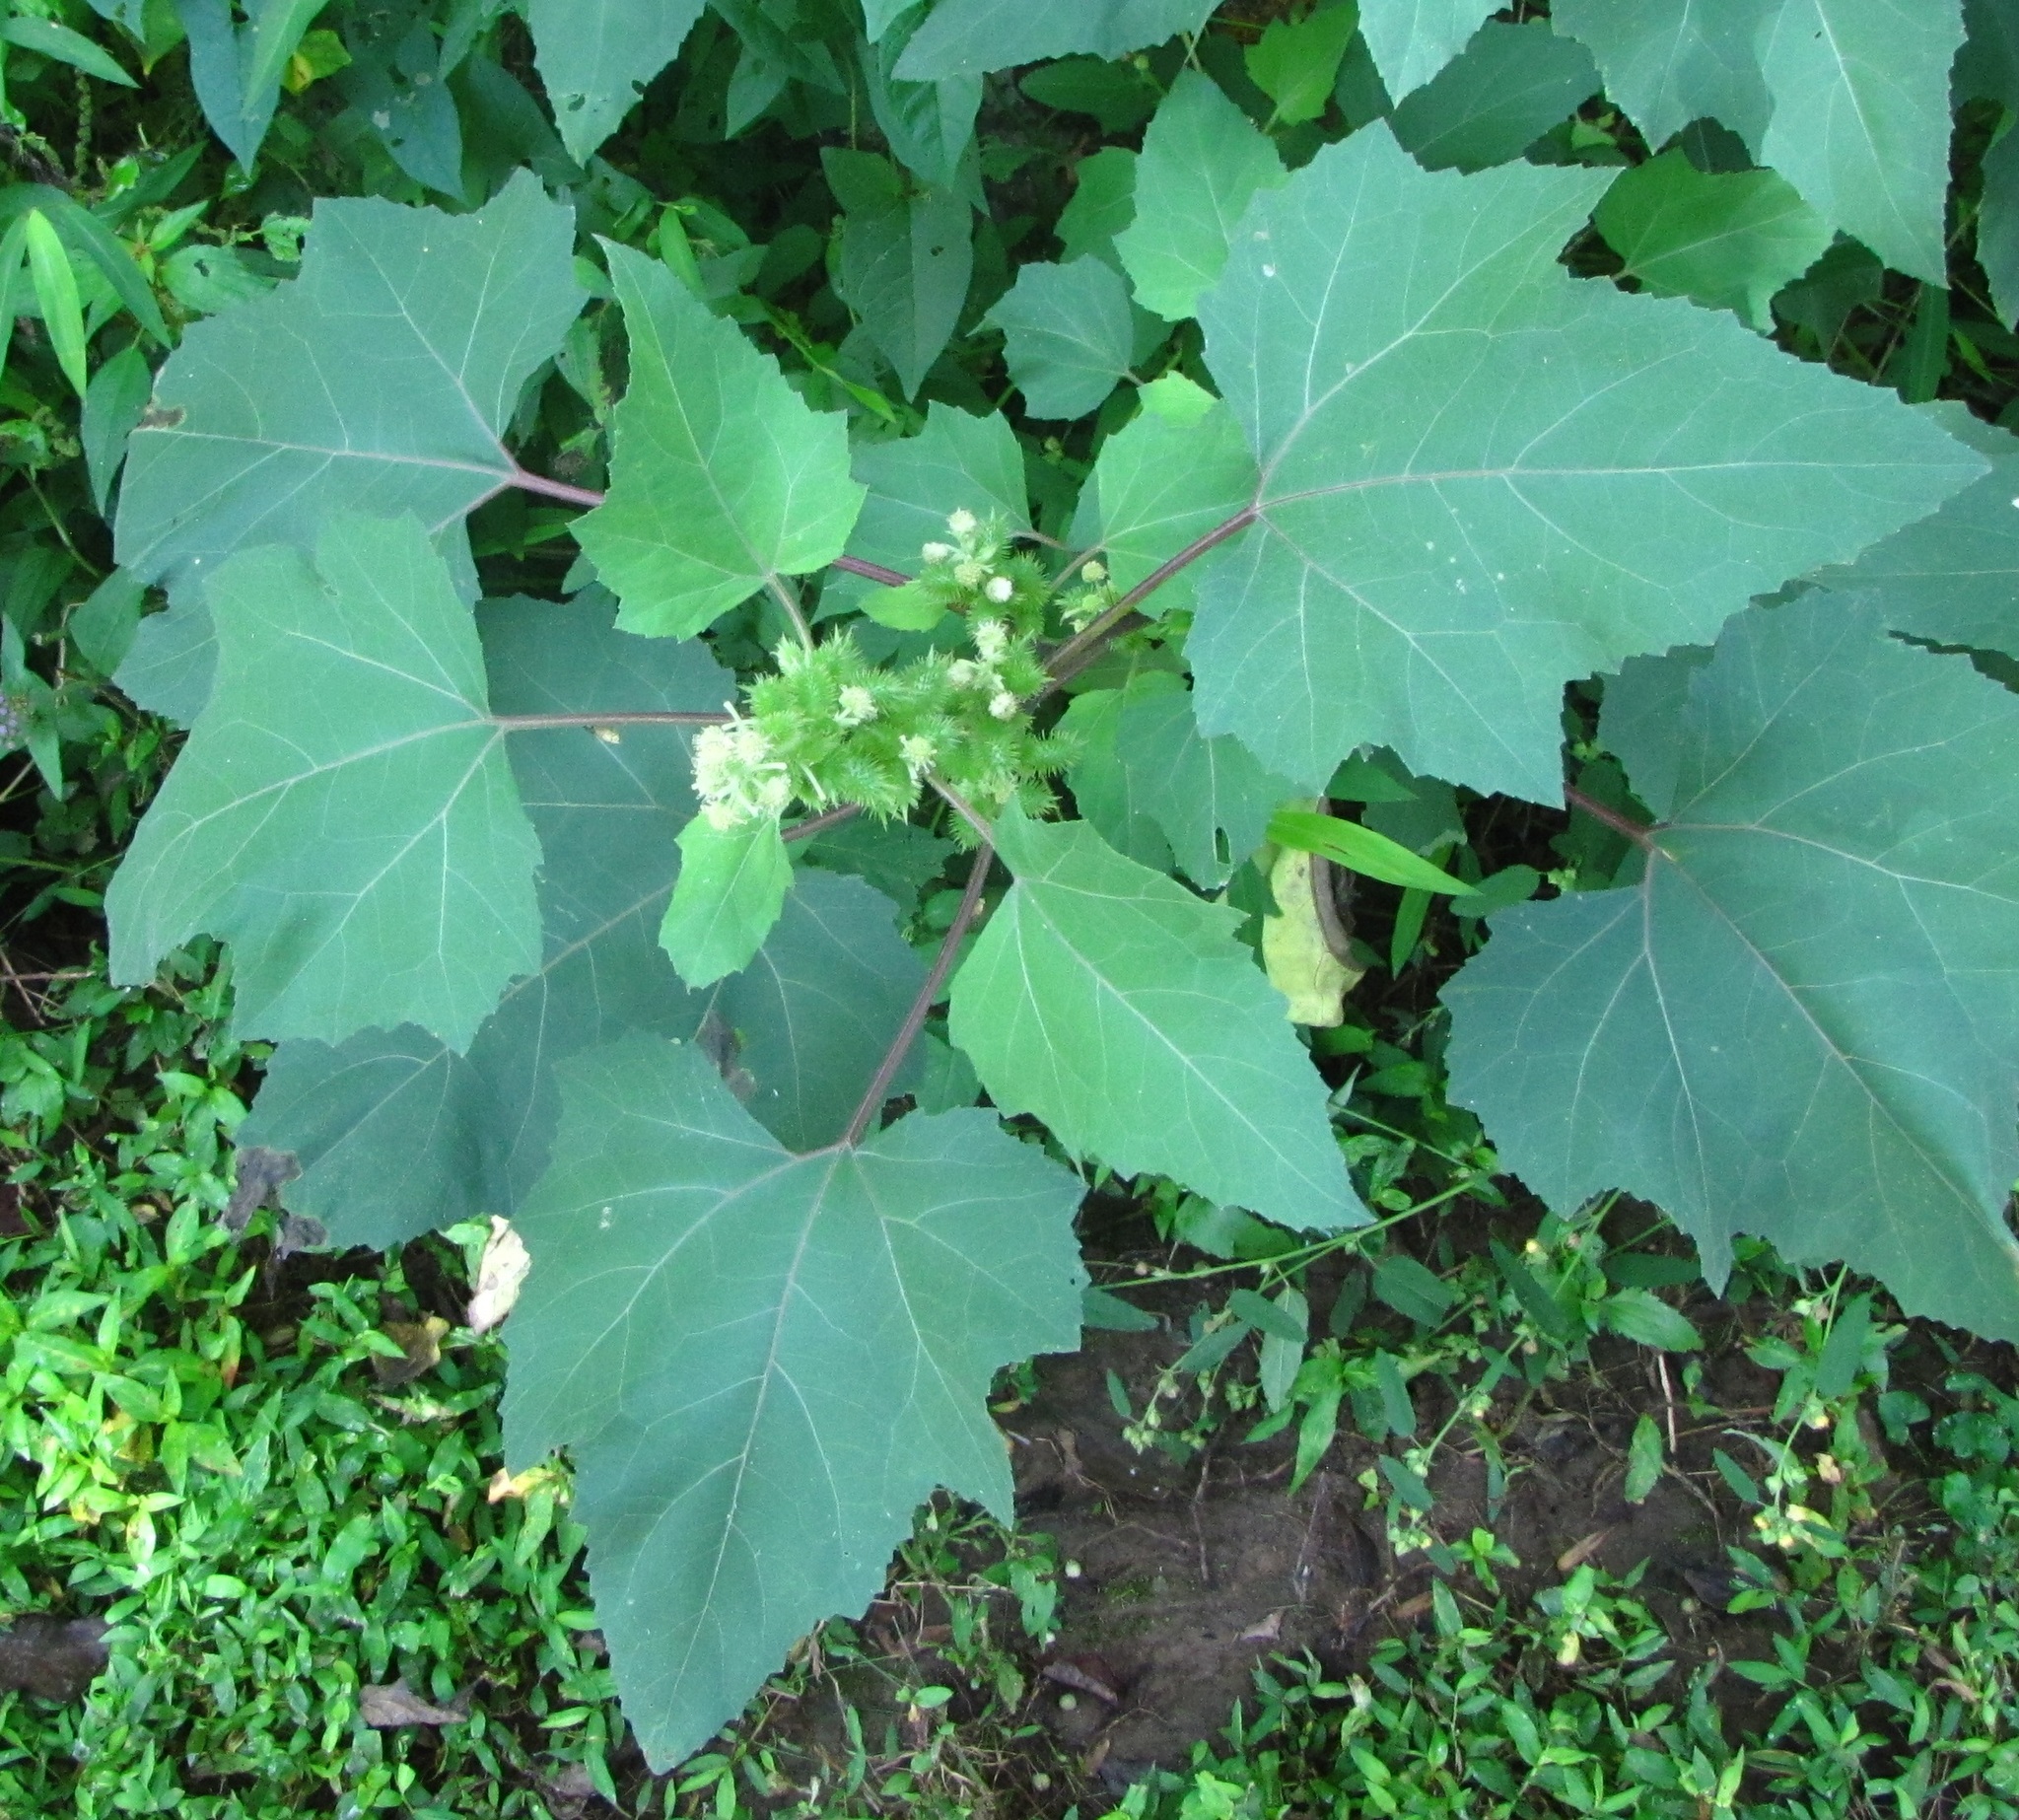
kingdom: Plantae
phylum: Tracheophyta
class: Magnoliopsida
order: Asterales
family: Asteraceae
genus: Xanthium
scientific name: Xanthium strumarium
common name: Rough cocklebur
